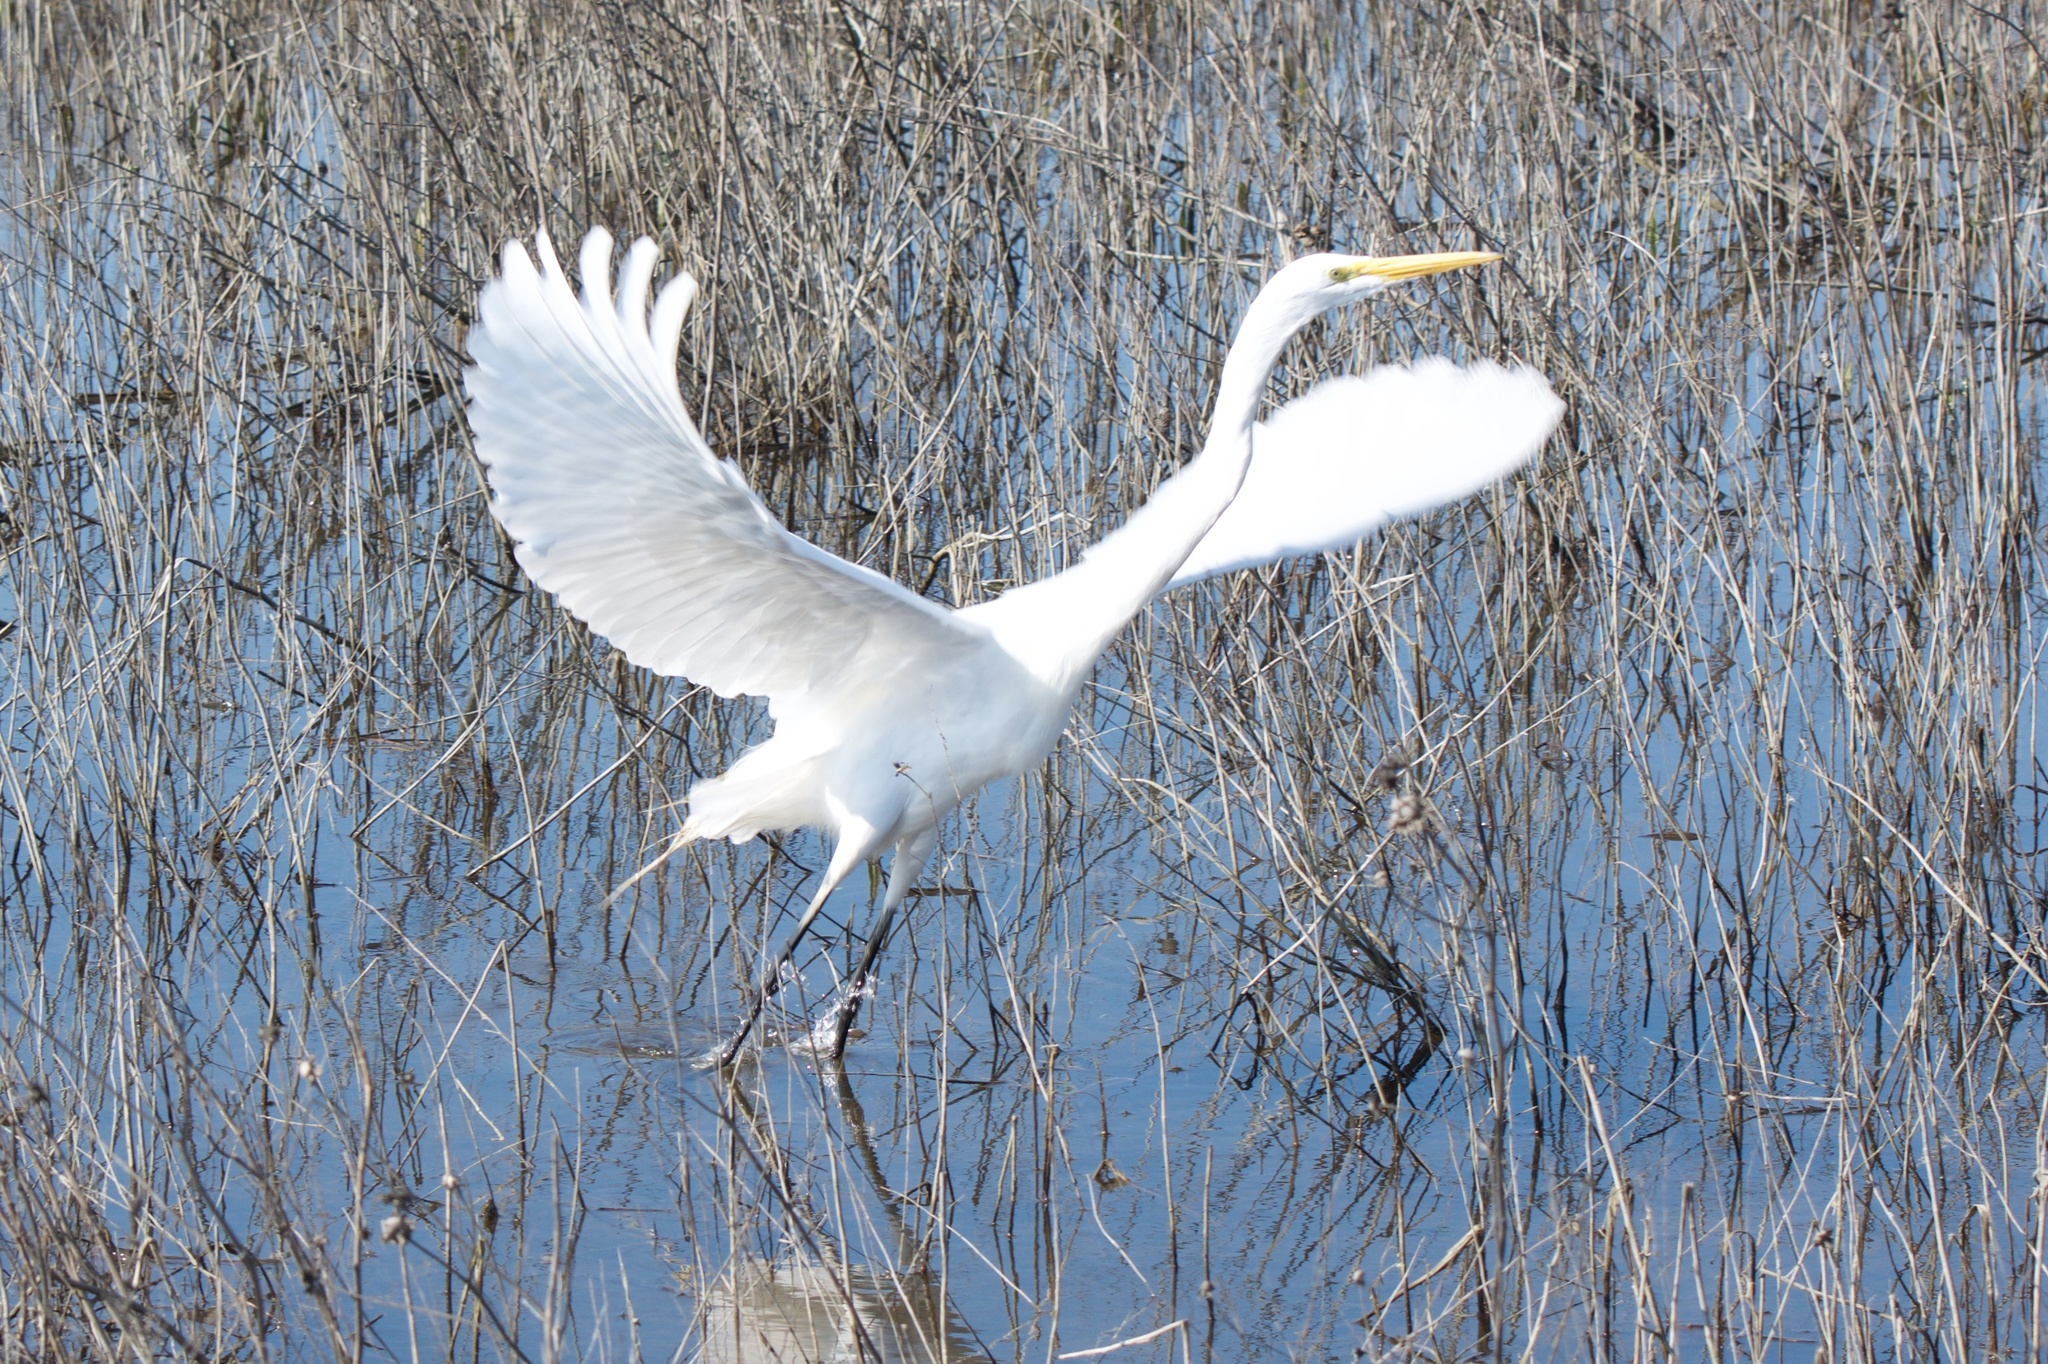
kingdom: Animalia
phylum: Chordata
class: Aves
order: Pelecaniformes
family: Ardeidae
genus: Ardea
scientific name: Ardea alba
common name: Great egret
